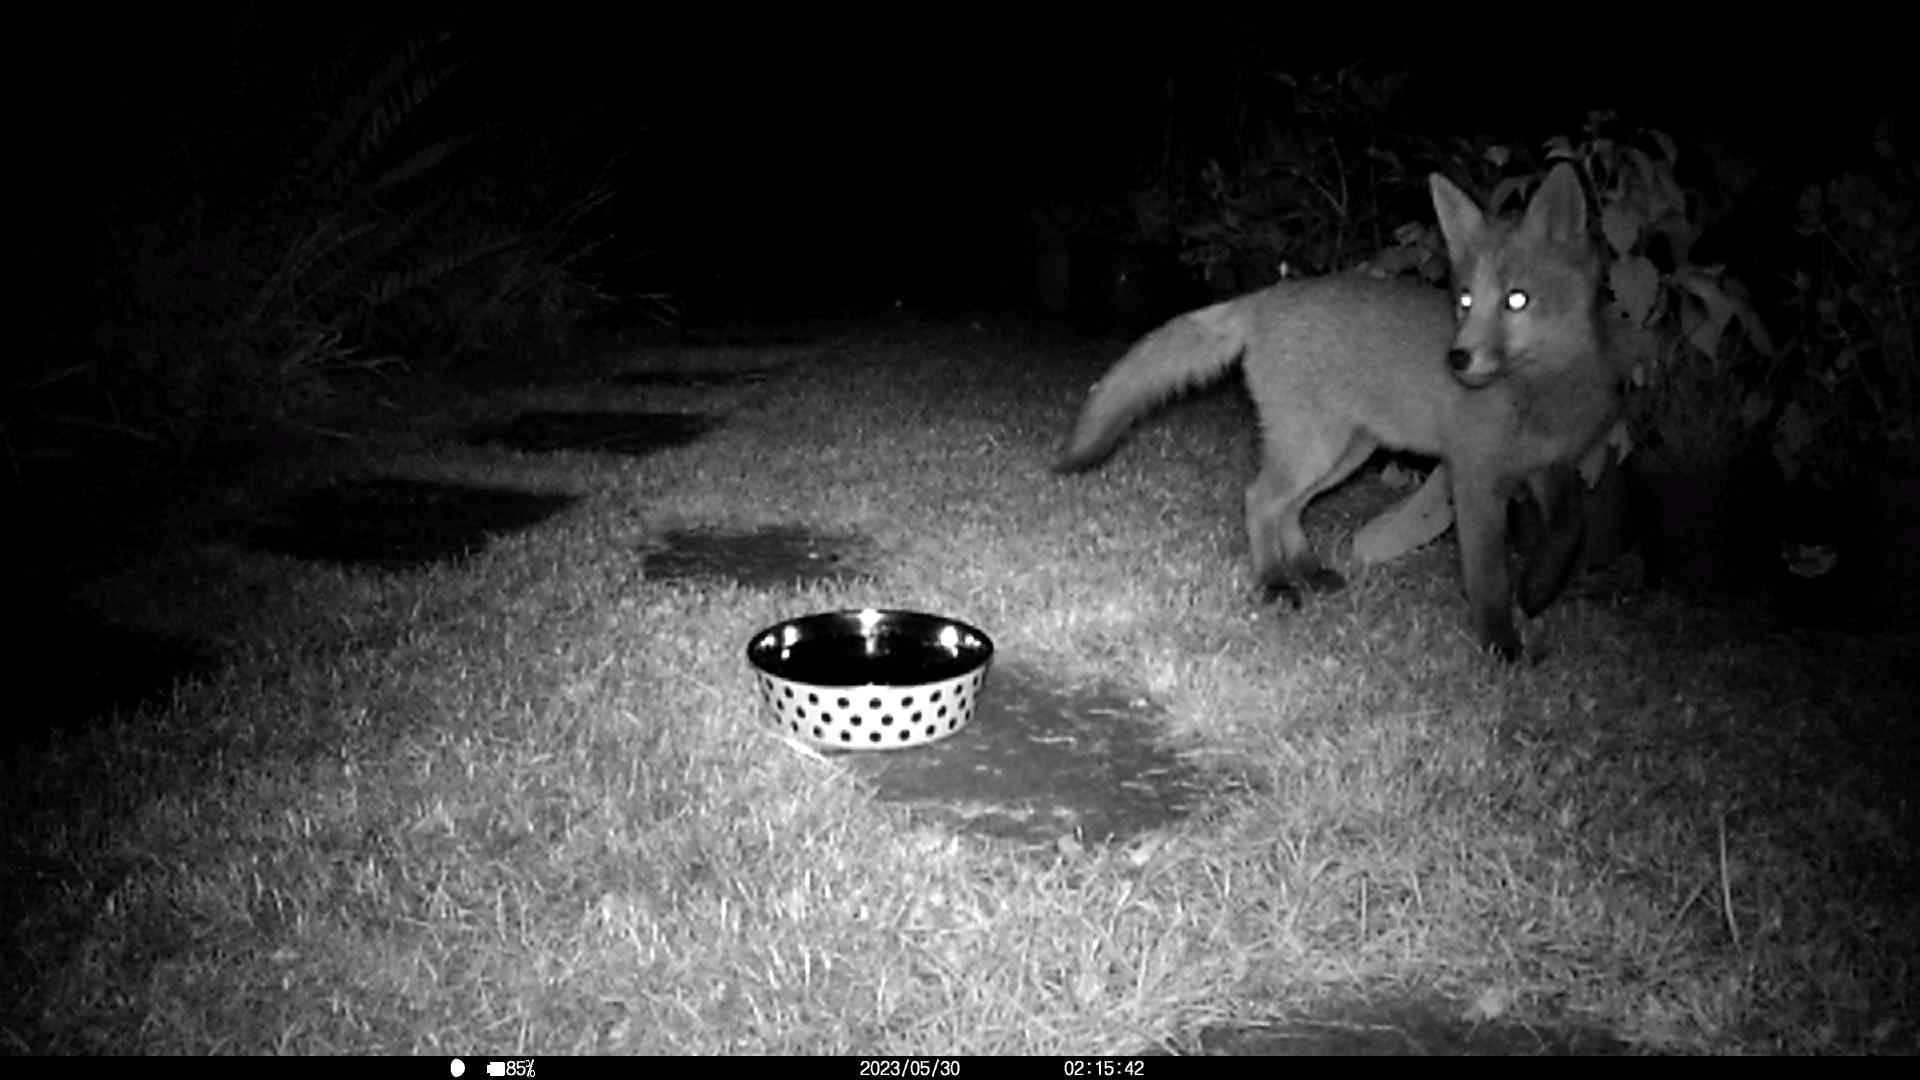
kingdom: Animalia
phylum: Chordata
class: Mammalia
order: Carnivora
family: Canidae
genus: Vulpes
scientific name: Vulpes vulpes
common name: Red fox
